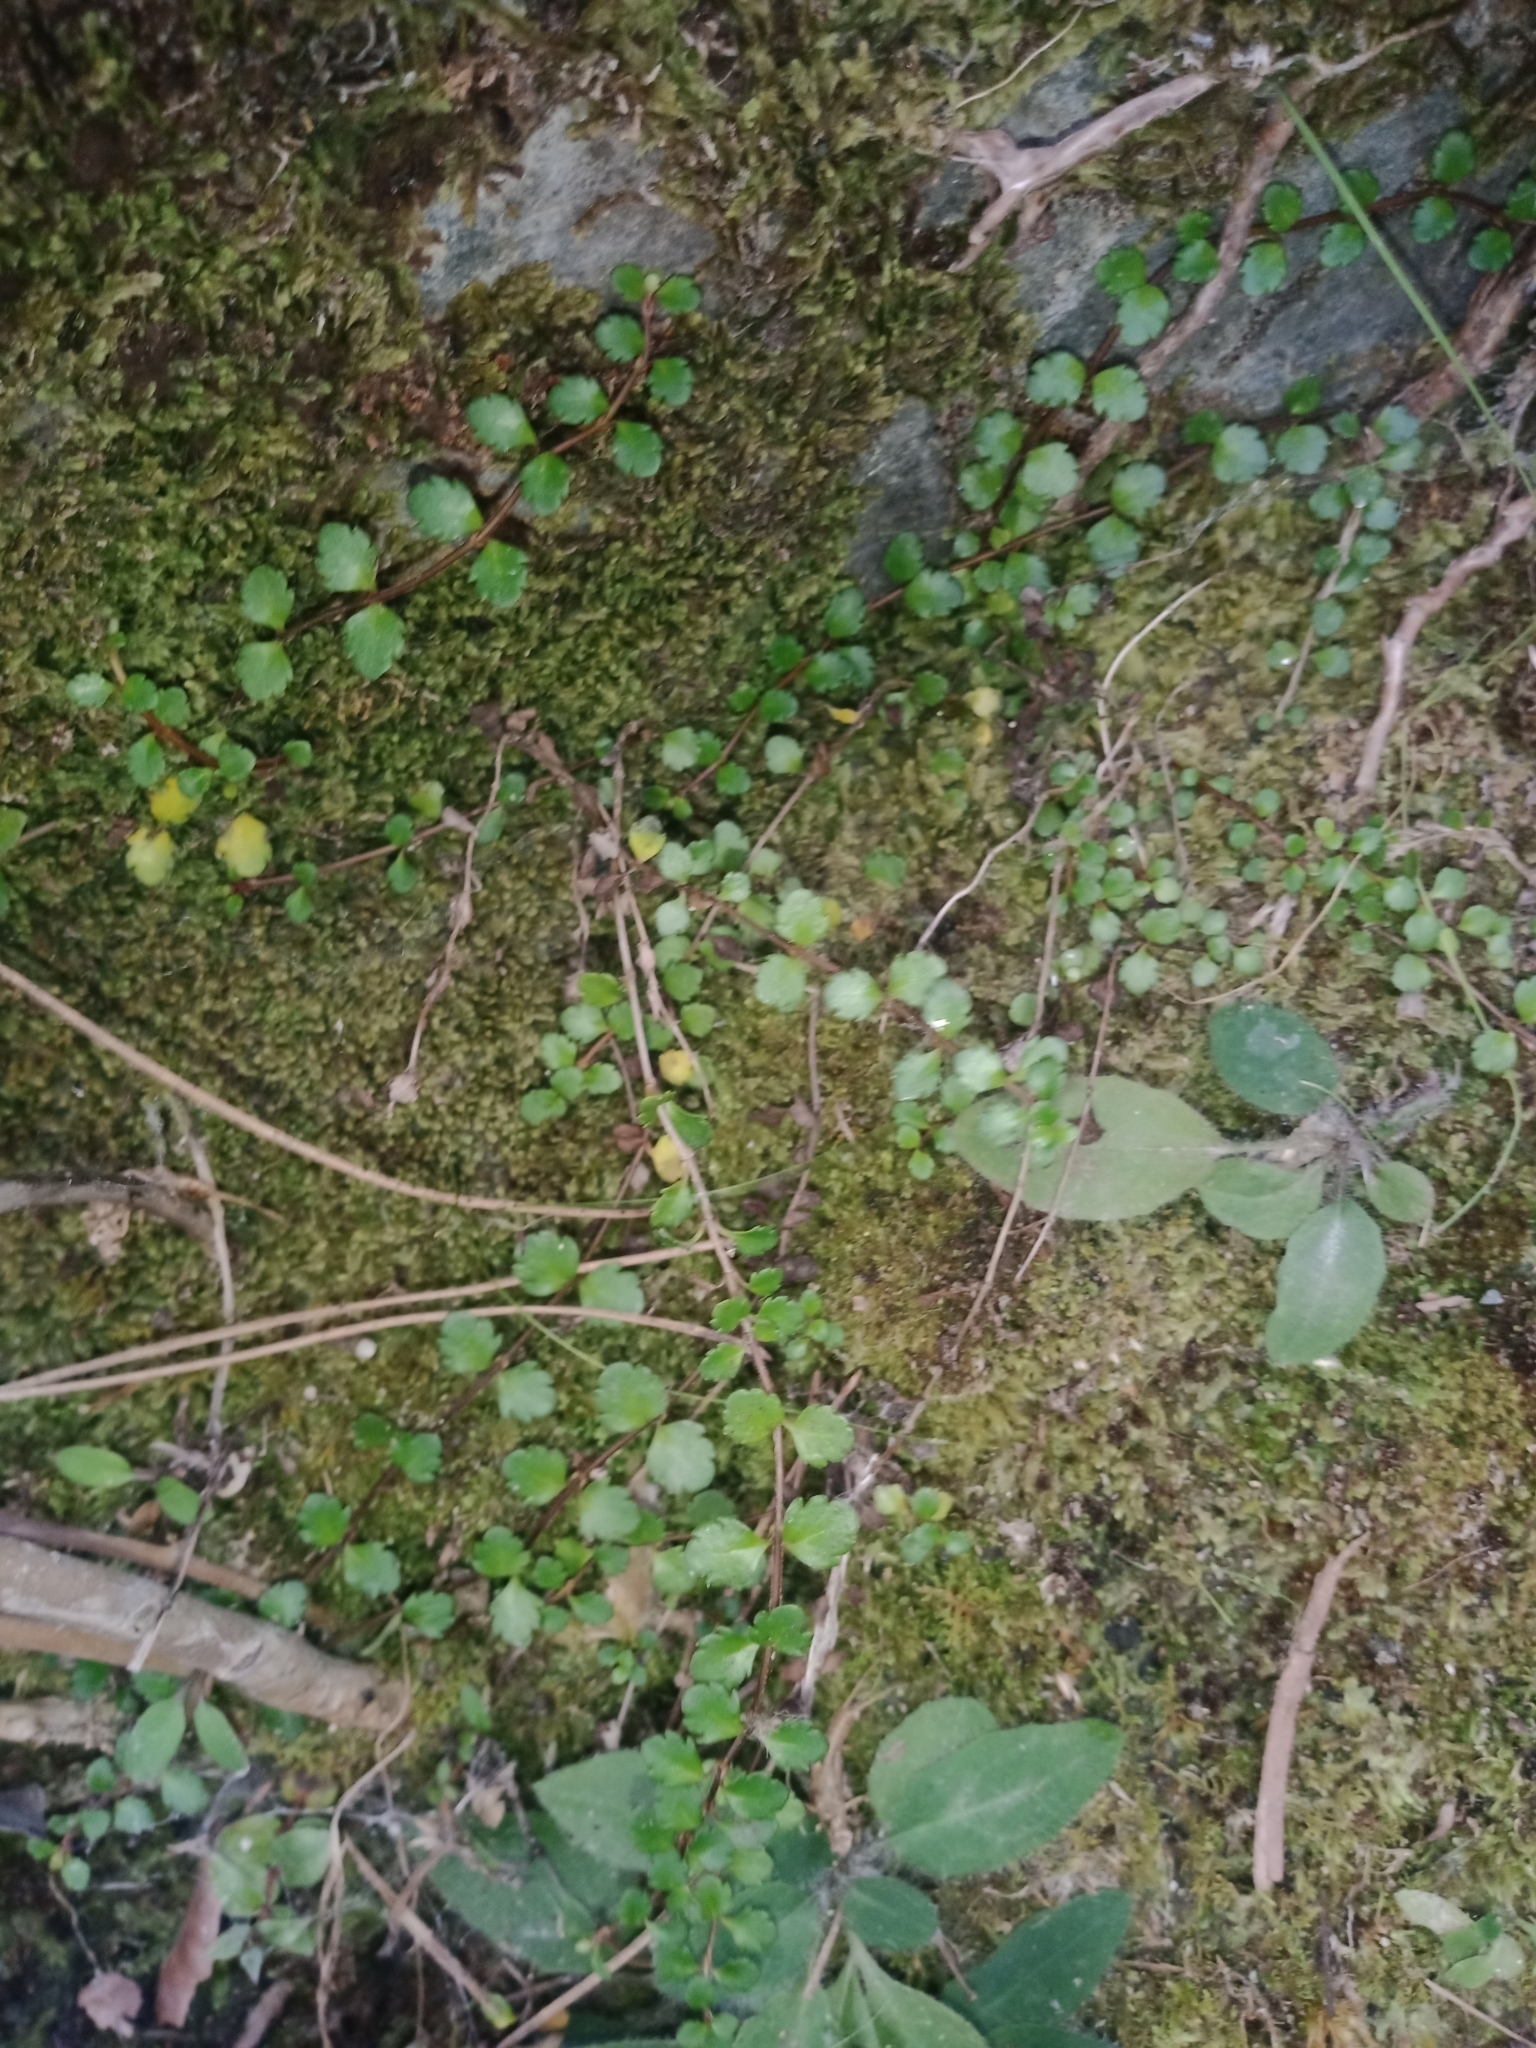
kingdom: Plantae
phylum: Tracheophyta
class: Magnoliopsida
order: Lamiales
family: Plantaginaceae
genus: Veronica
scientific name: Veronica lyallii
